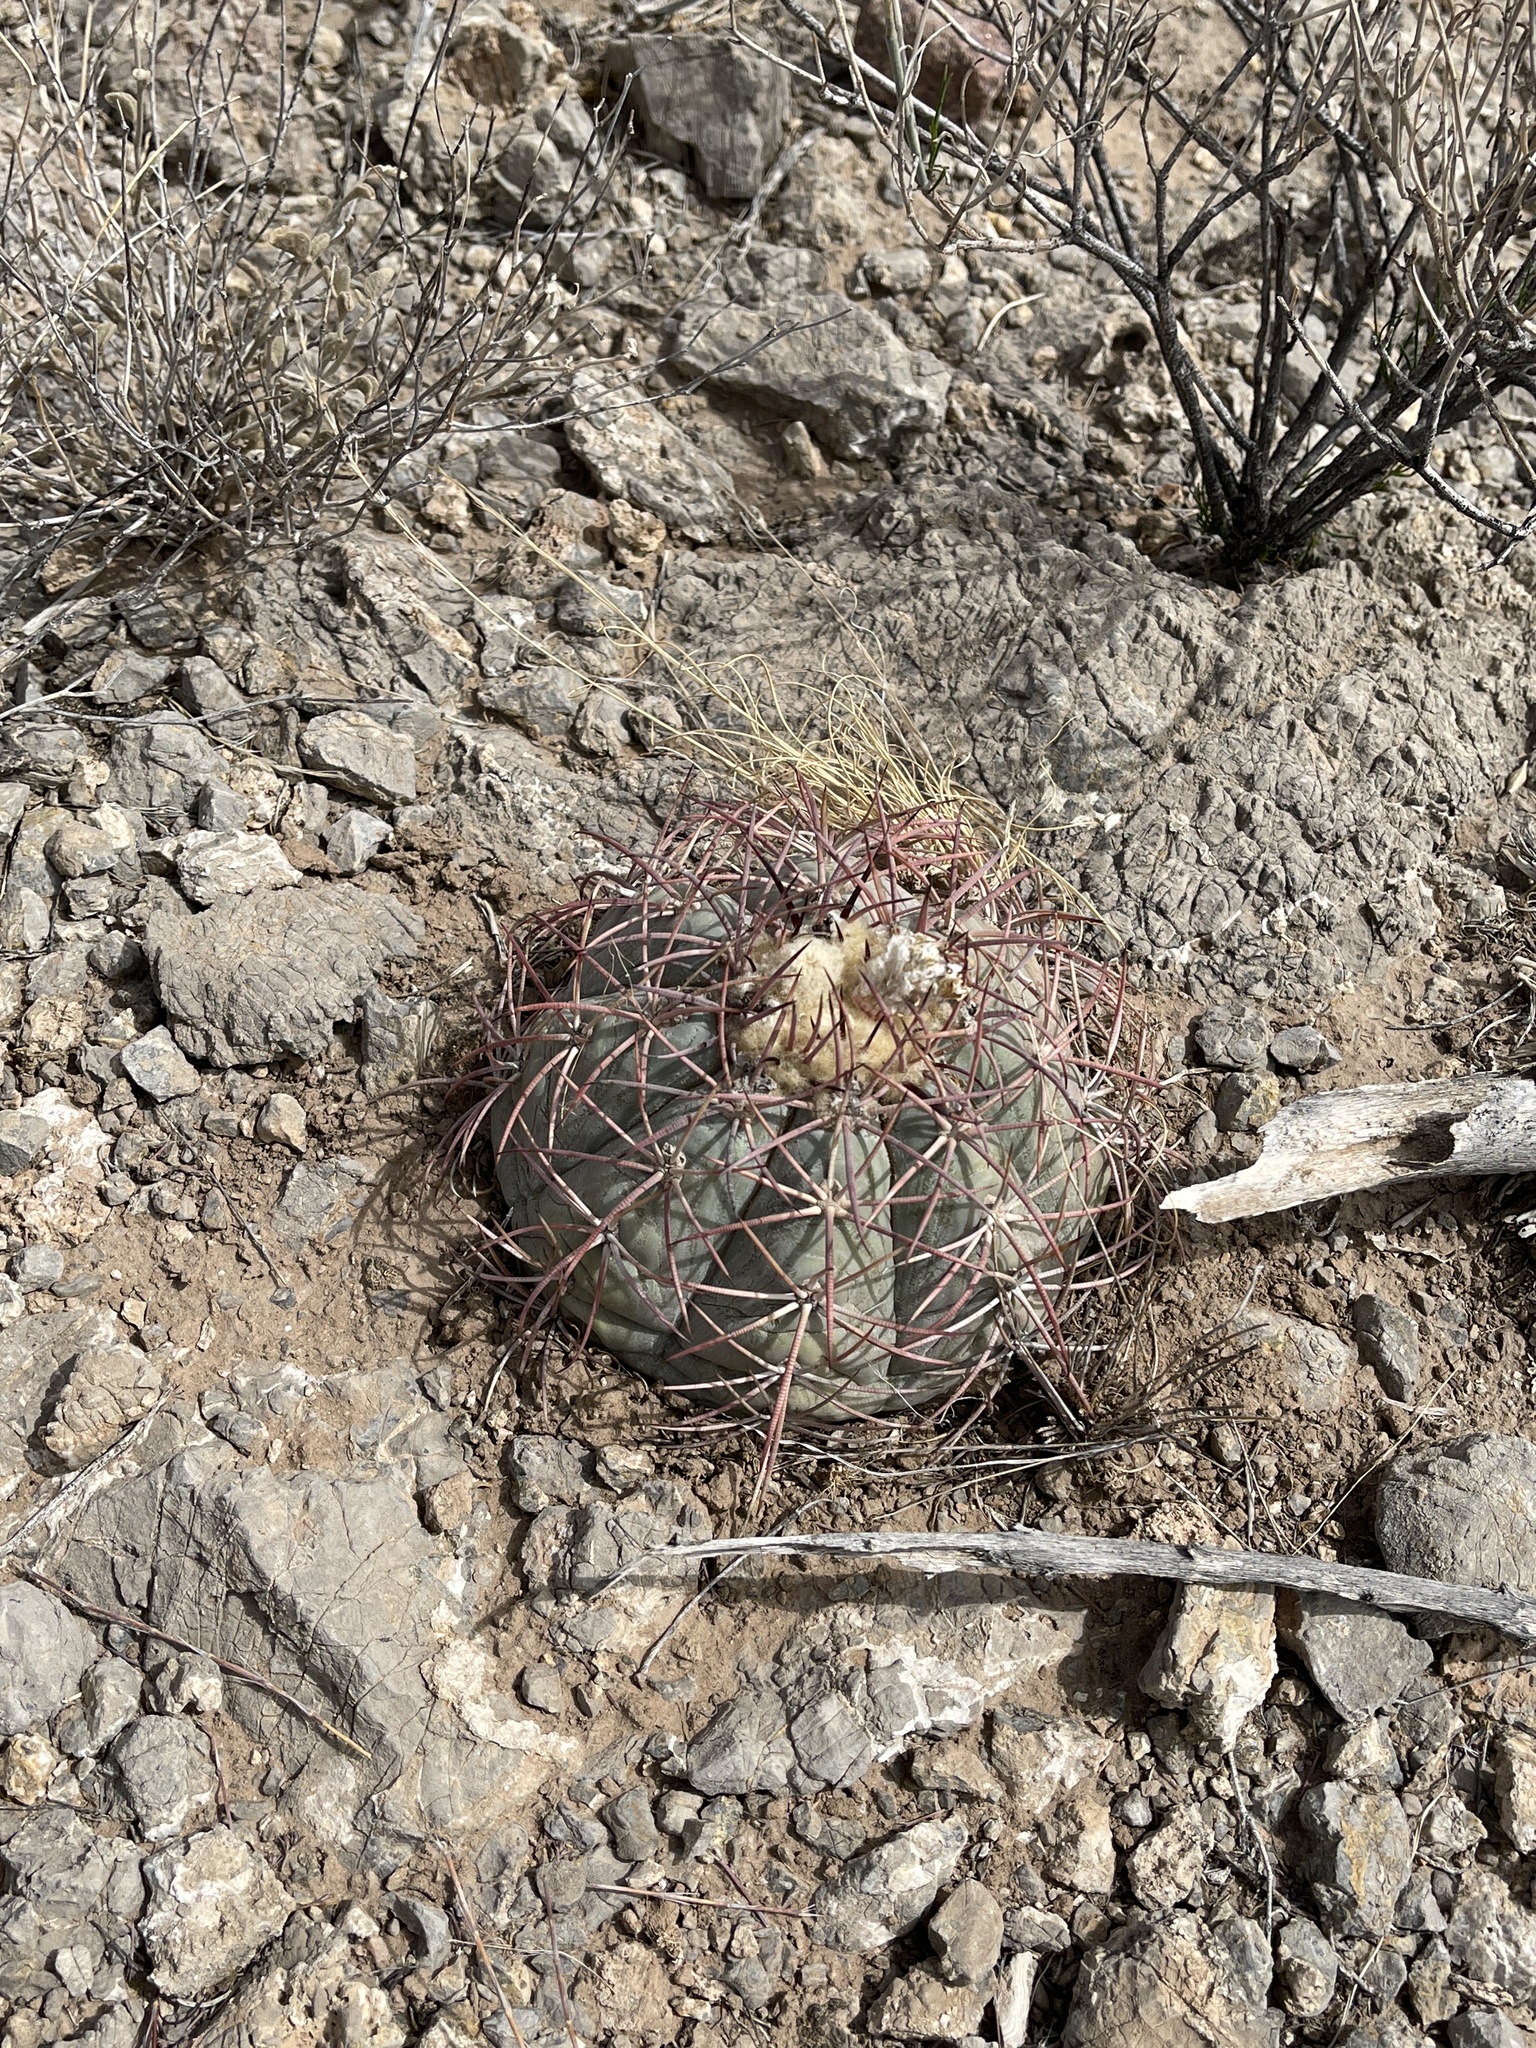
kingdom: Plantae
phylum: Tracheophyta
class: Magnoliopsida
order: Caryophyllales
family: Cactaceae
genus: Echinocactus
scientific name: Echinocactus horizonthalonius
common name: Devilshead
